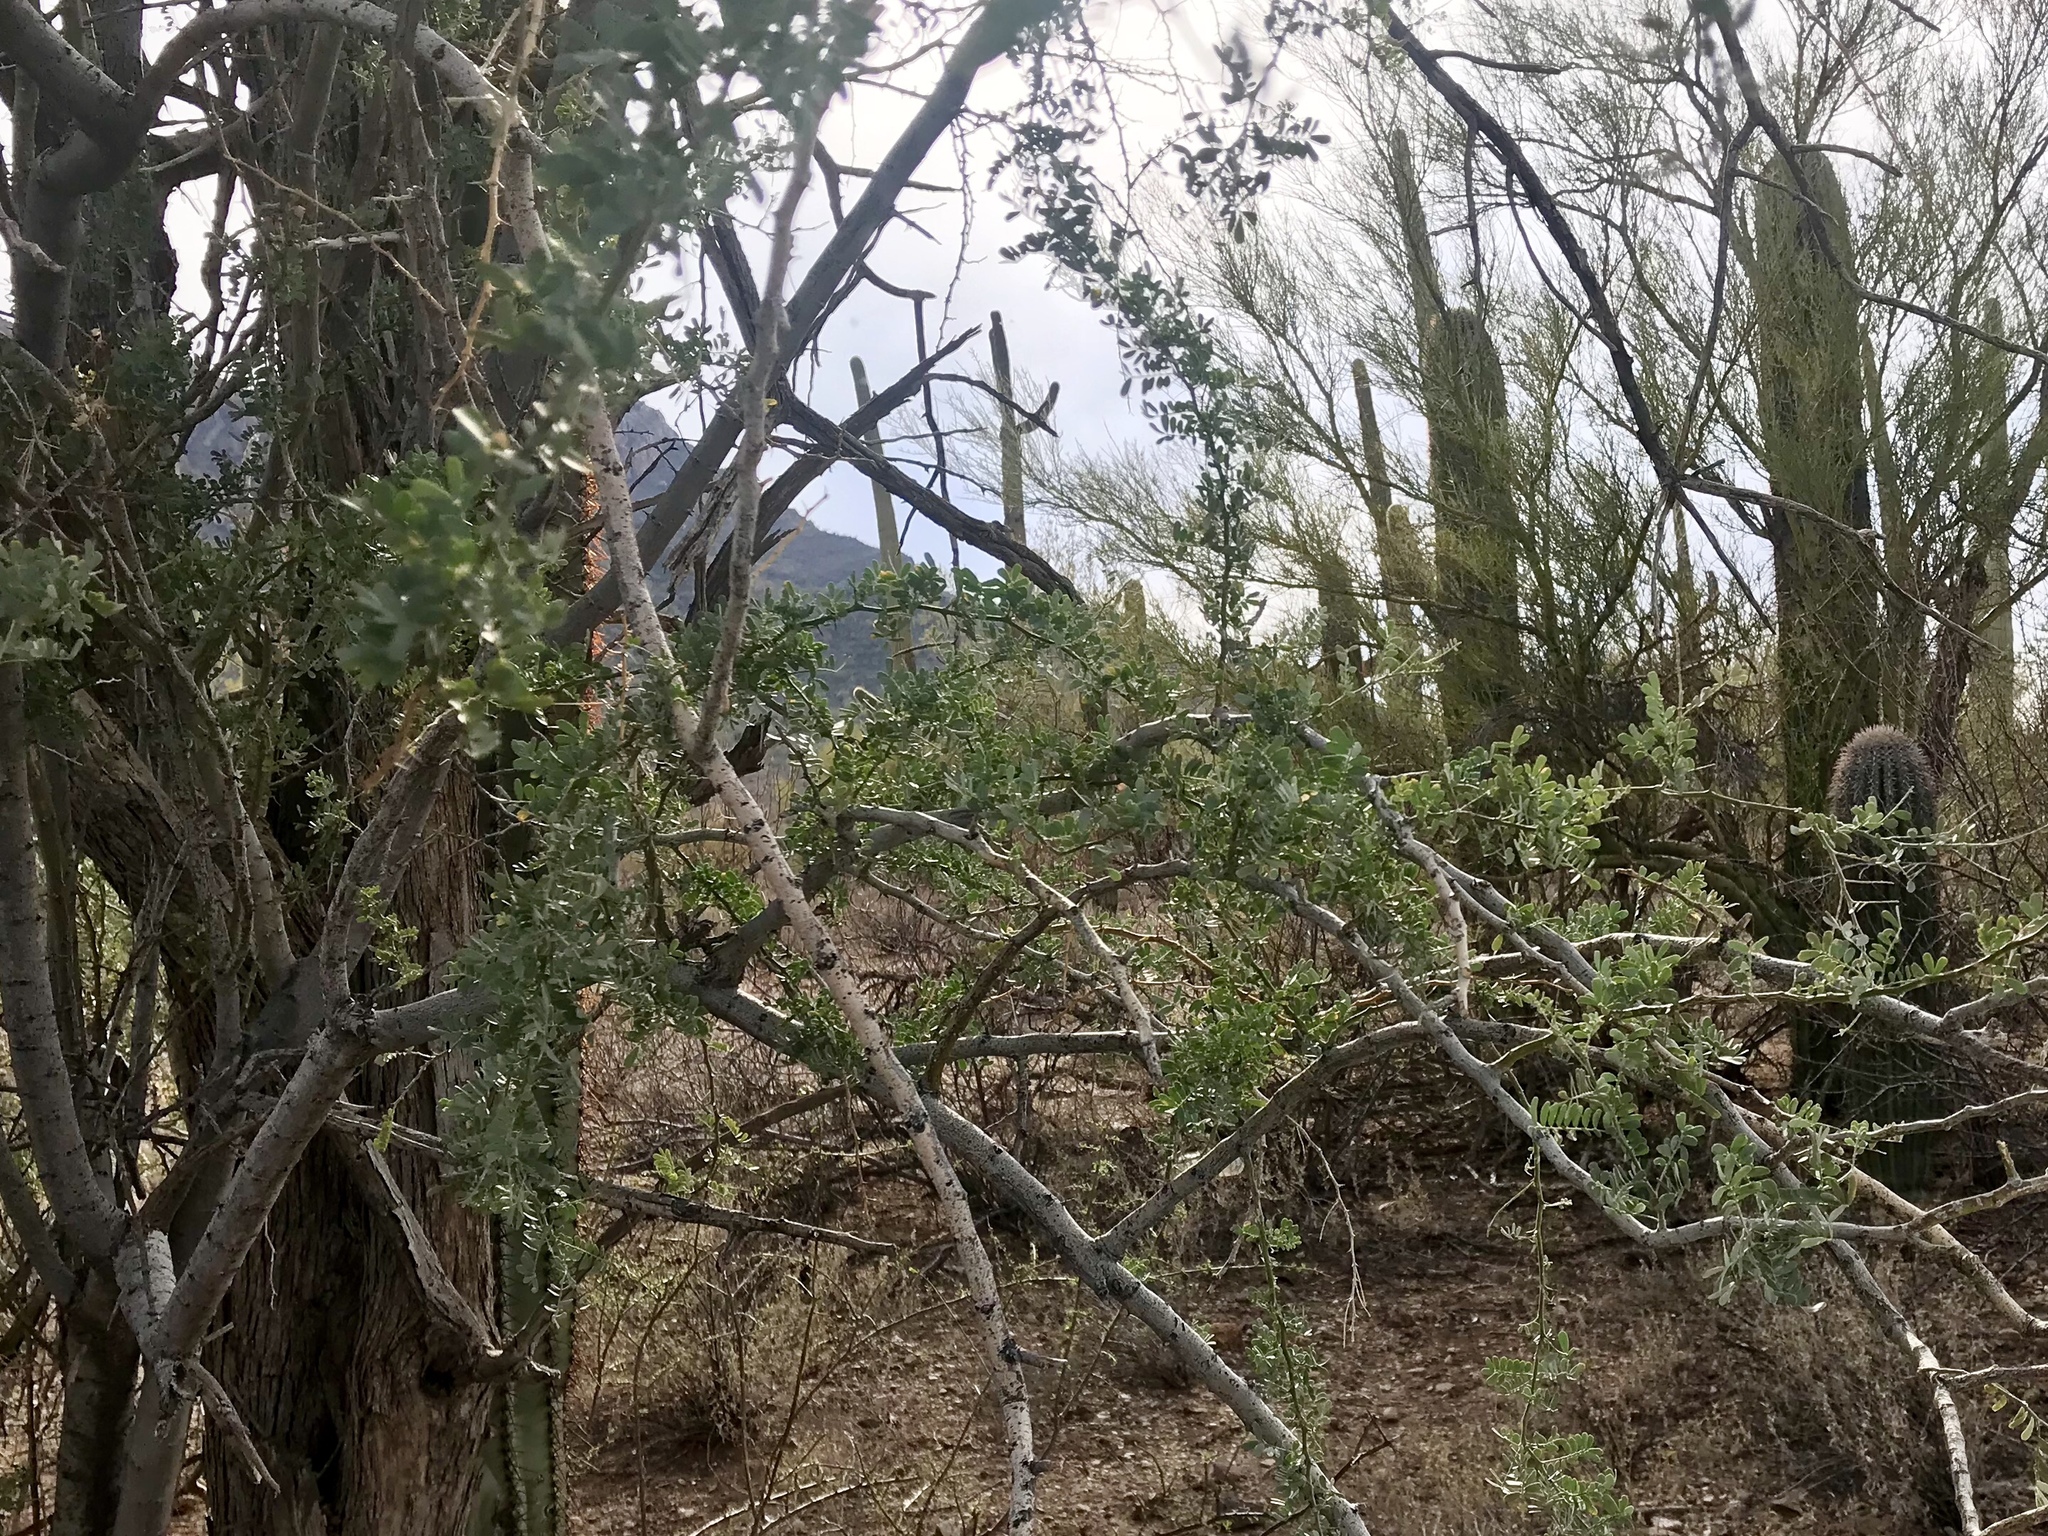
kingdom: Plantae
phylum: Tracheophyta
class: Magnoliopsida
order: Fabales
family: Fabaceae
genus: Olneya
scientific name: Olneya tesota
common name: Desert ironwood
